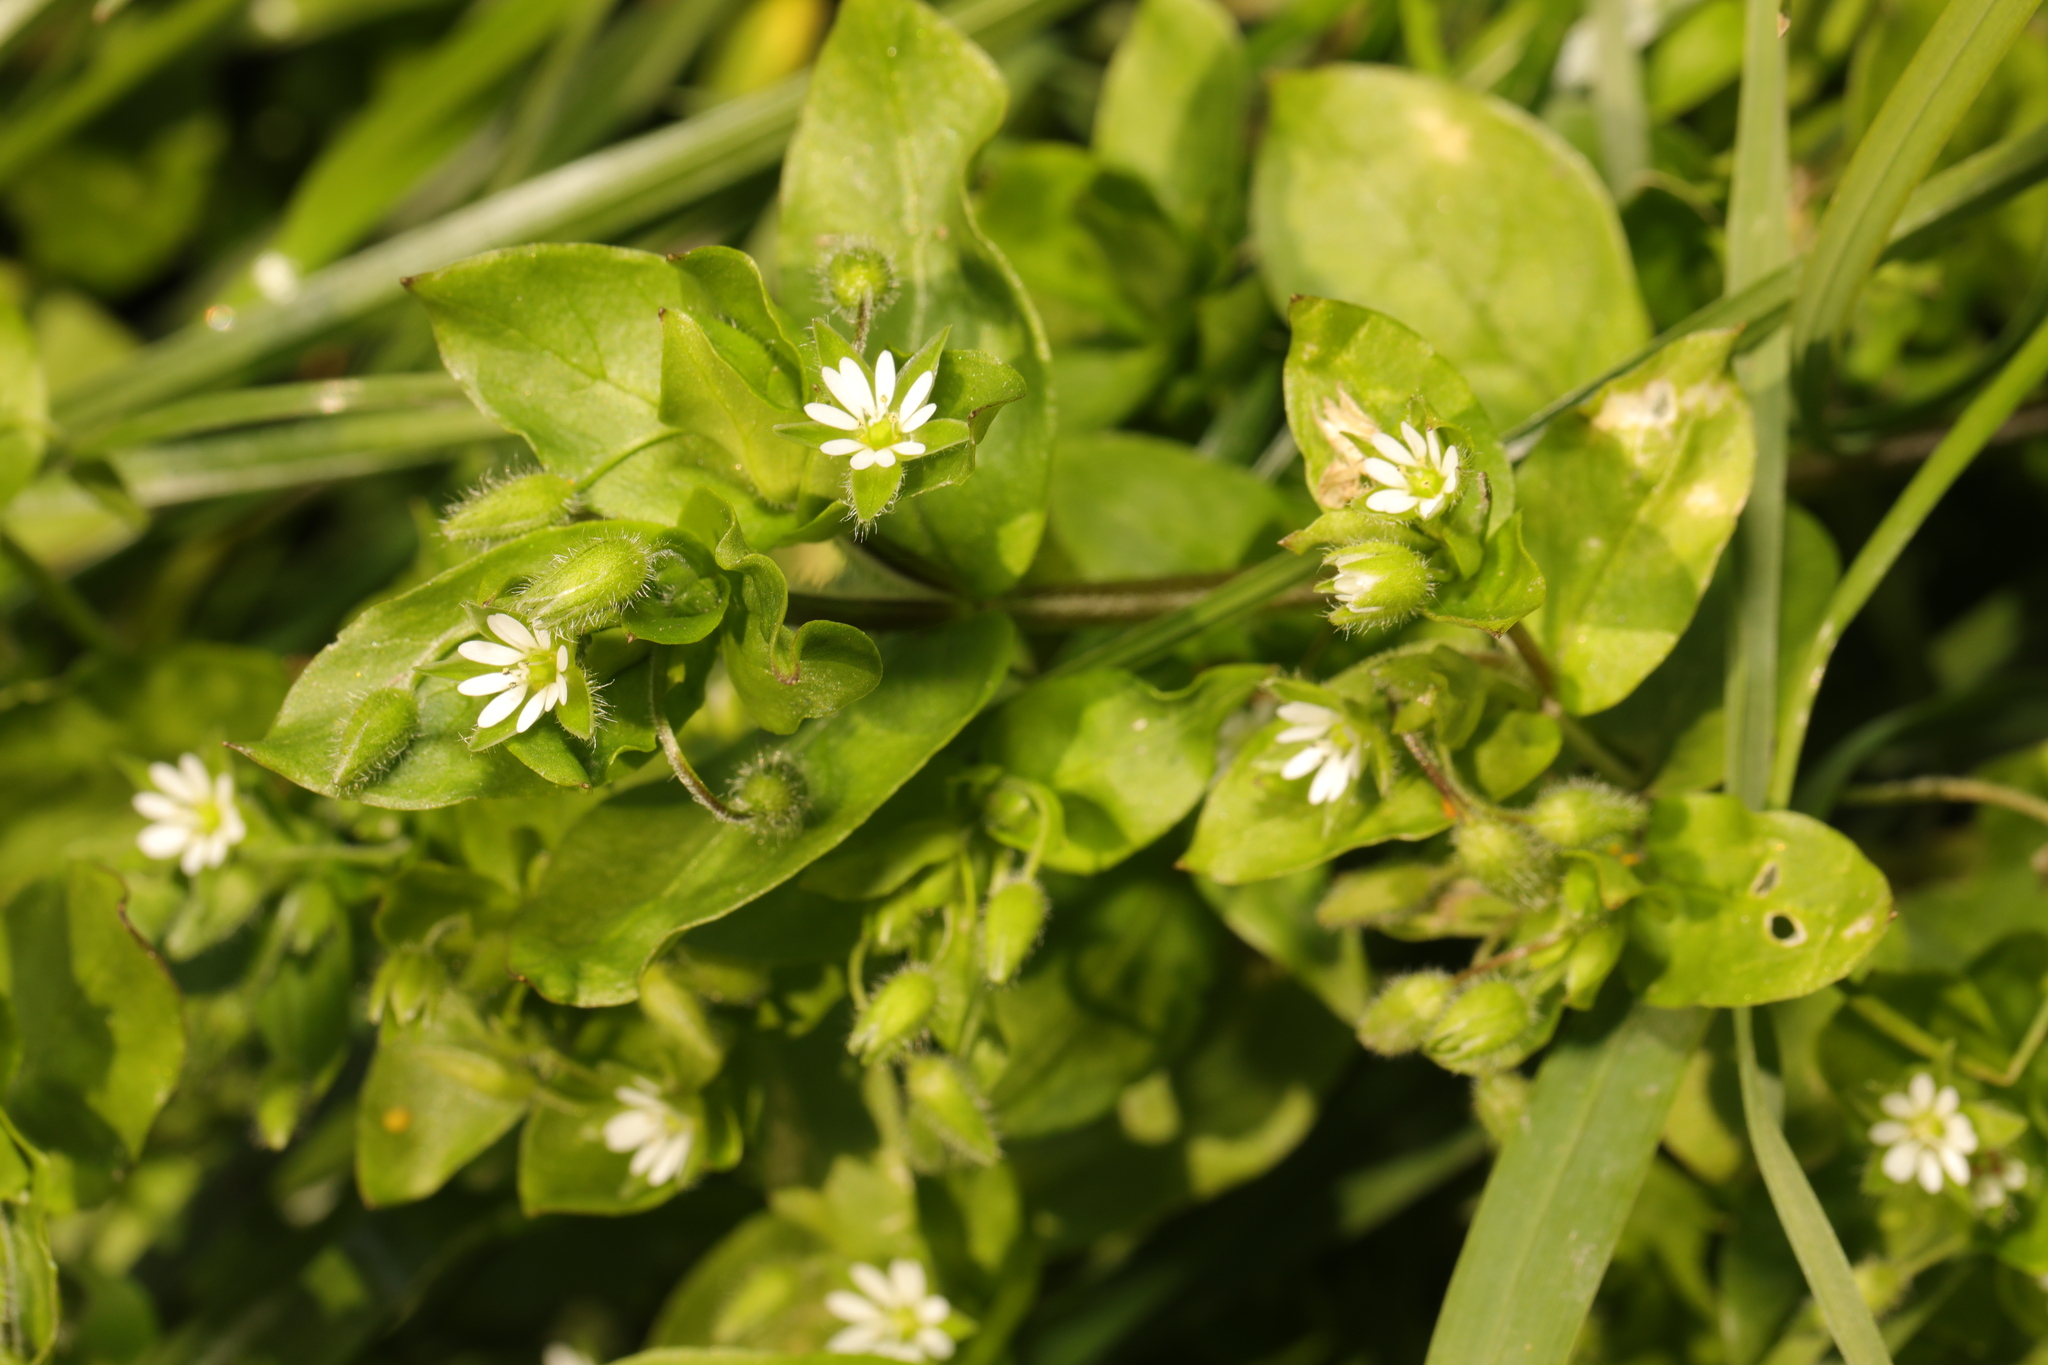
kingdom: Plantae
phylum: Tracheophyta
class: Magnoliopsida
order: Caryophyllales
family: Caryophyllaceae
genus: Stellaria
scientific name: Stellaria media
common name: Common chickweed
